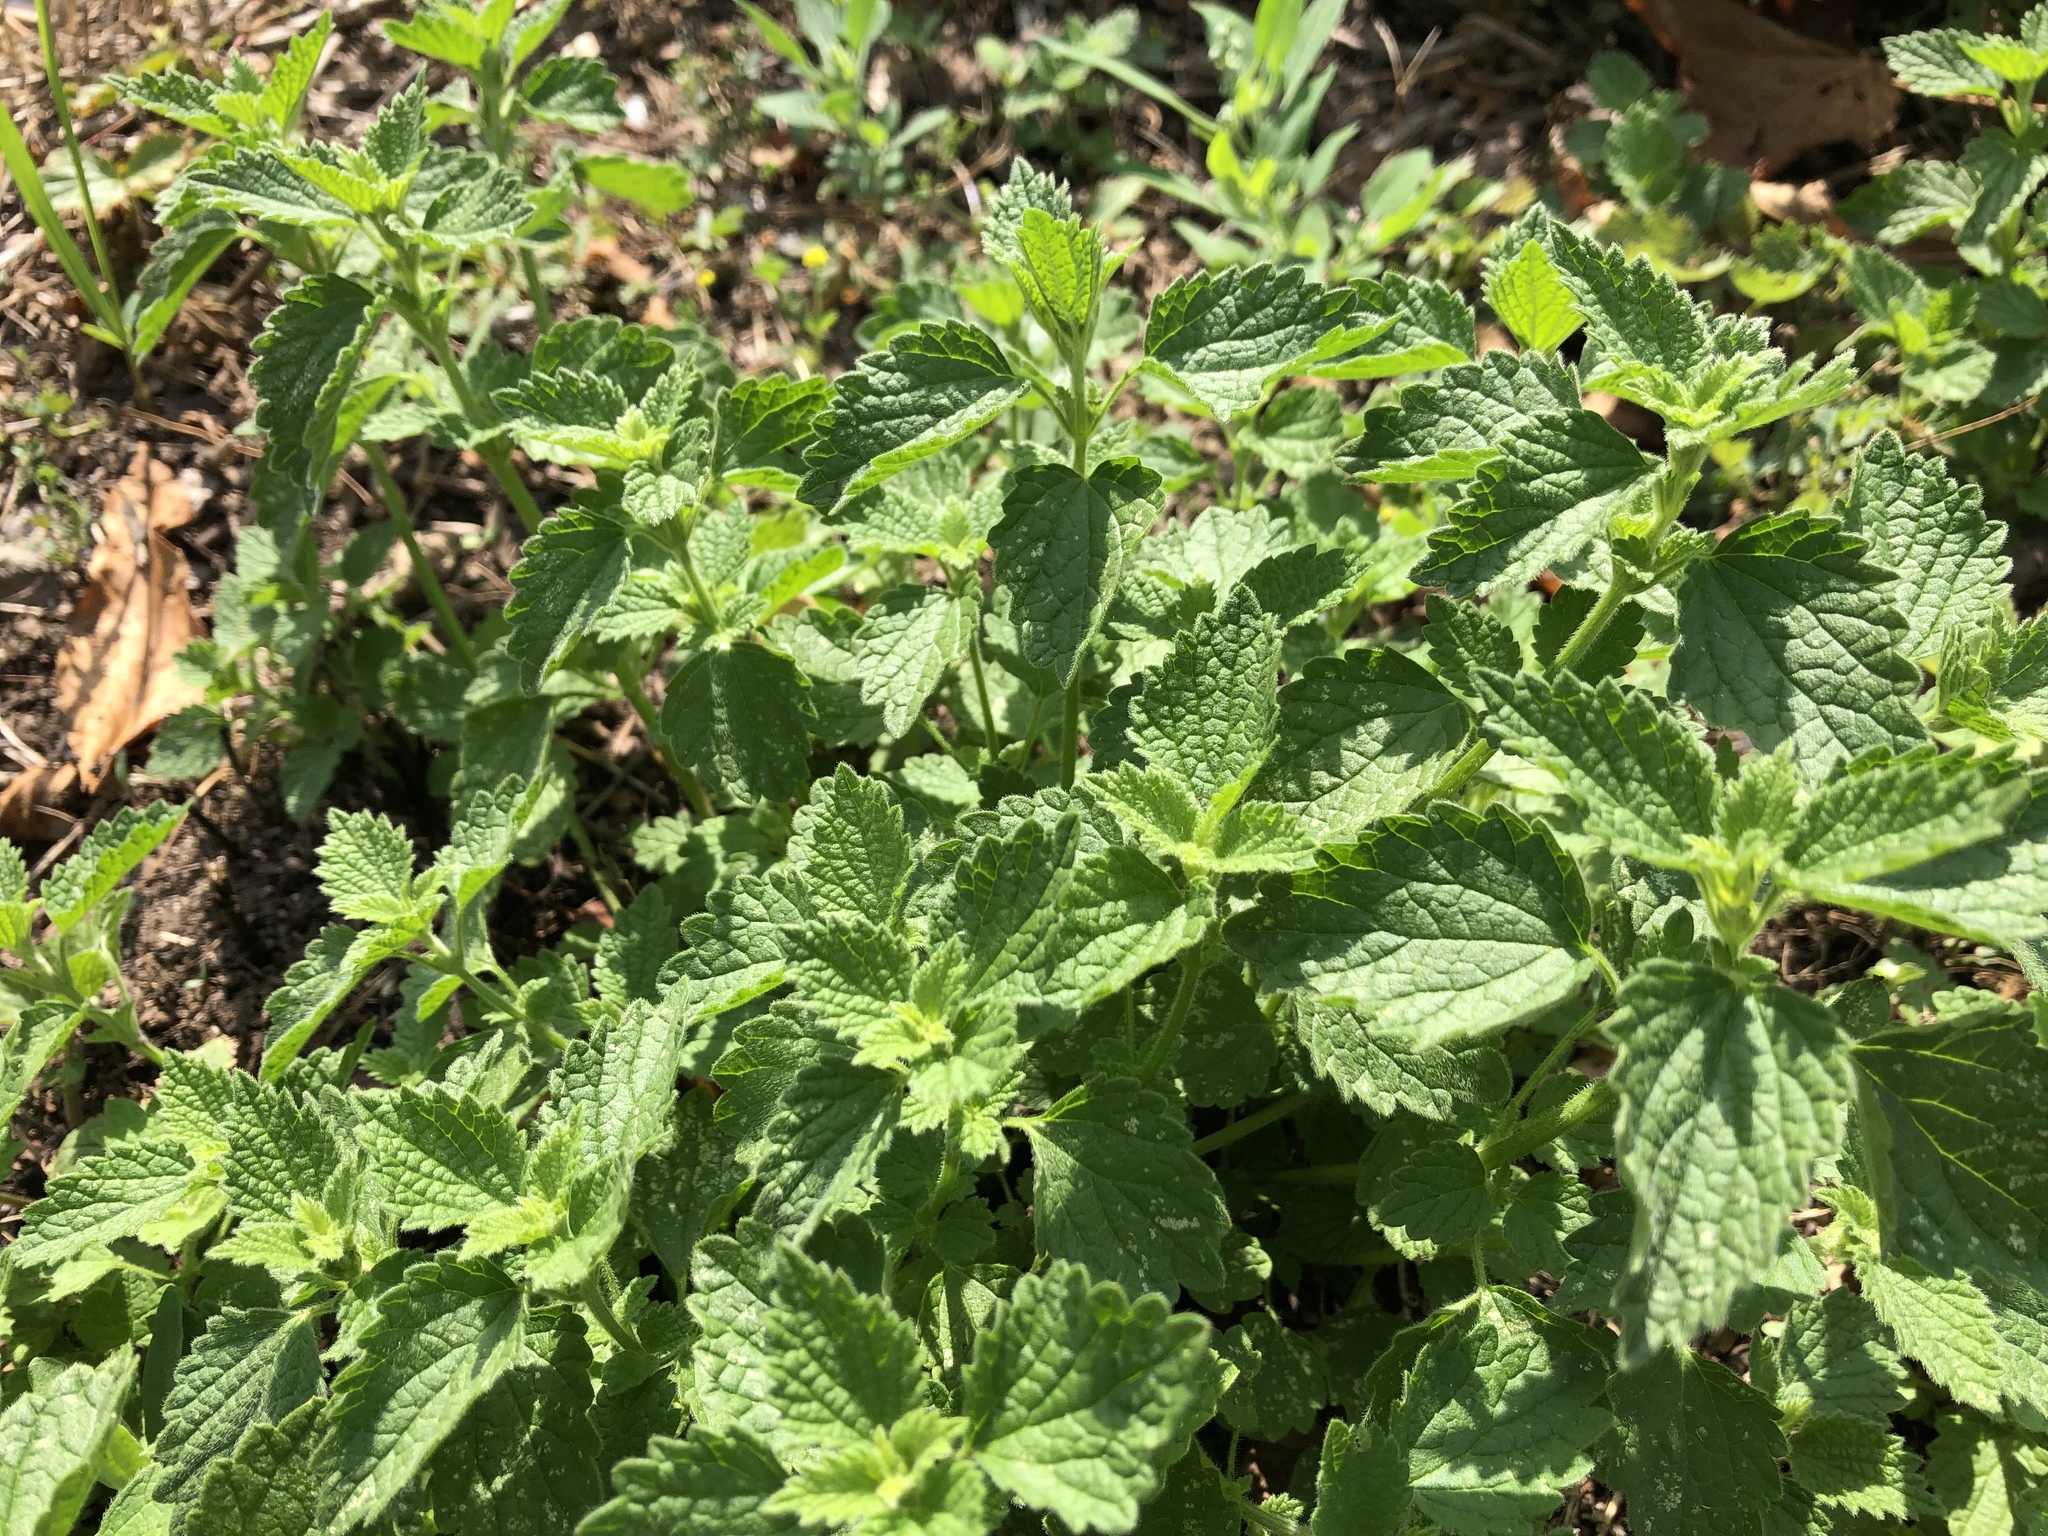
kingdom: Plantae
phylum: Tracheophyta
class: Magnoliopsida
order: Lamiales
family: Lamiaceae
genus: Ballota
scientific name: Ballota nigra
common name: Black horehound
